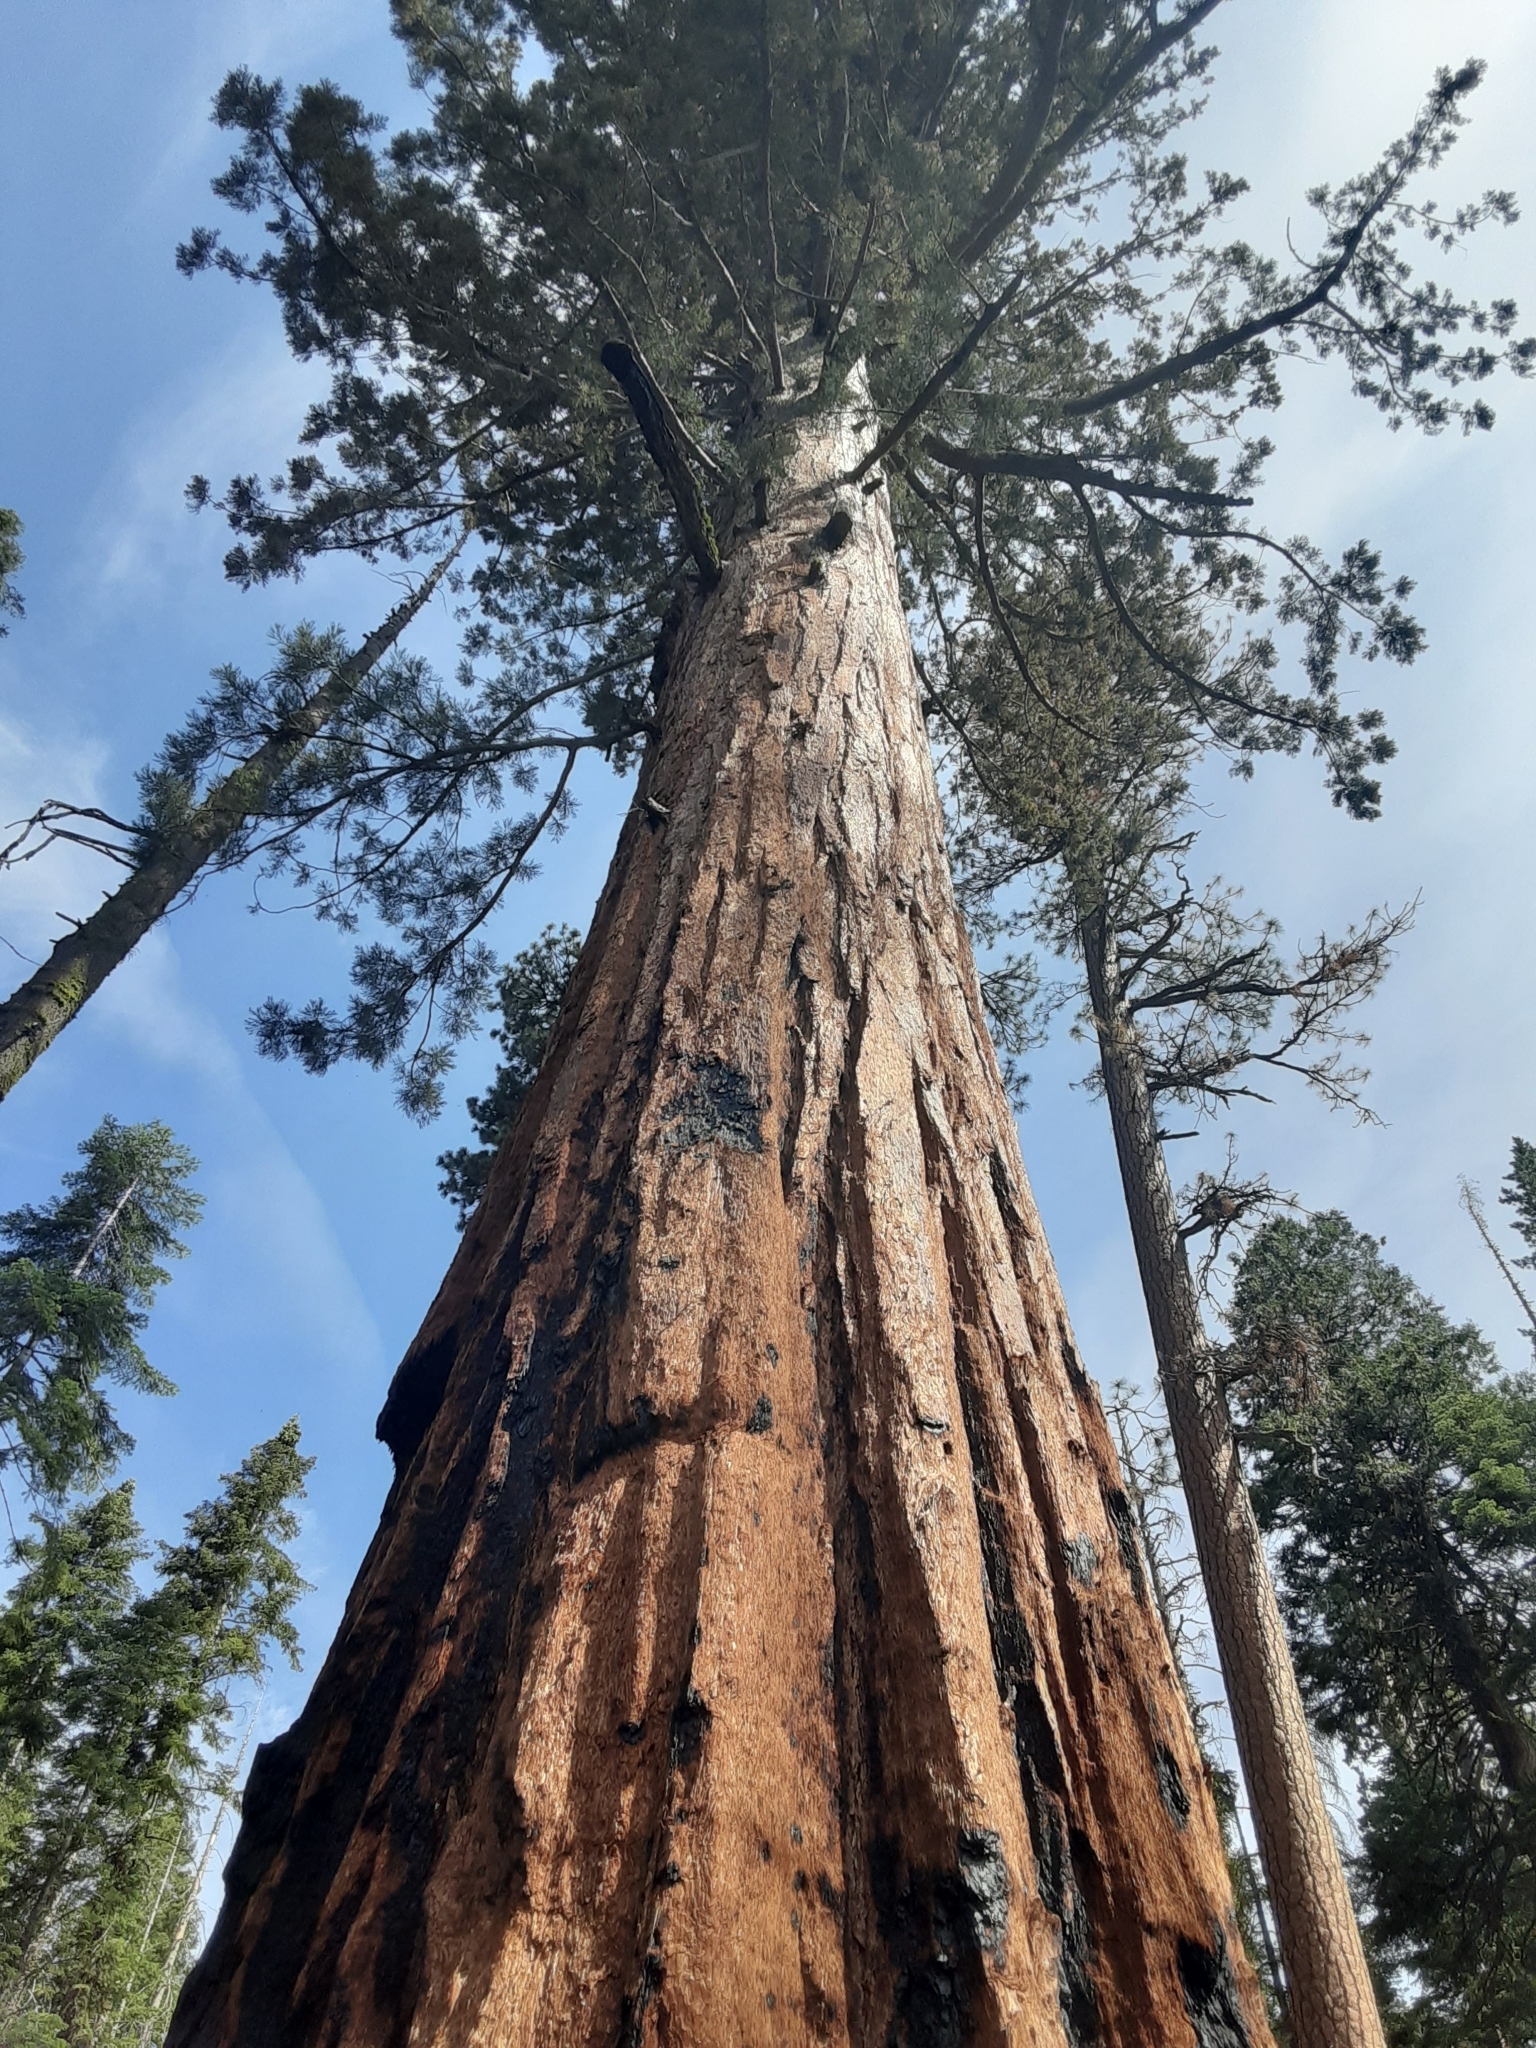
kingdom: Plantae
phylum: Tracheophyta
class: Pinopsida
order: Pinales
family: Cupressaceae
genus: Sequoiadendron
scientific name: Sequoiadendron giganteum
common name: Wellingtonia
